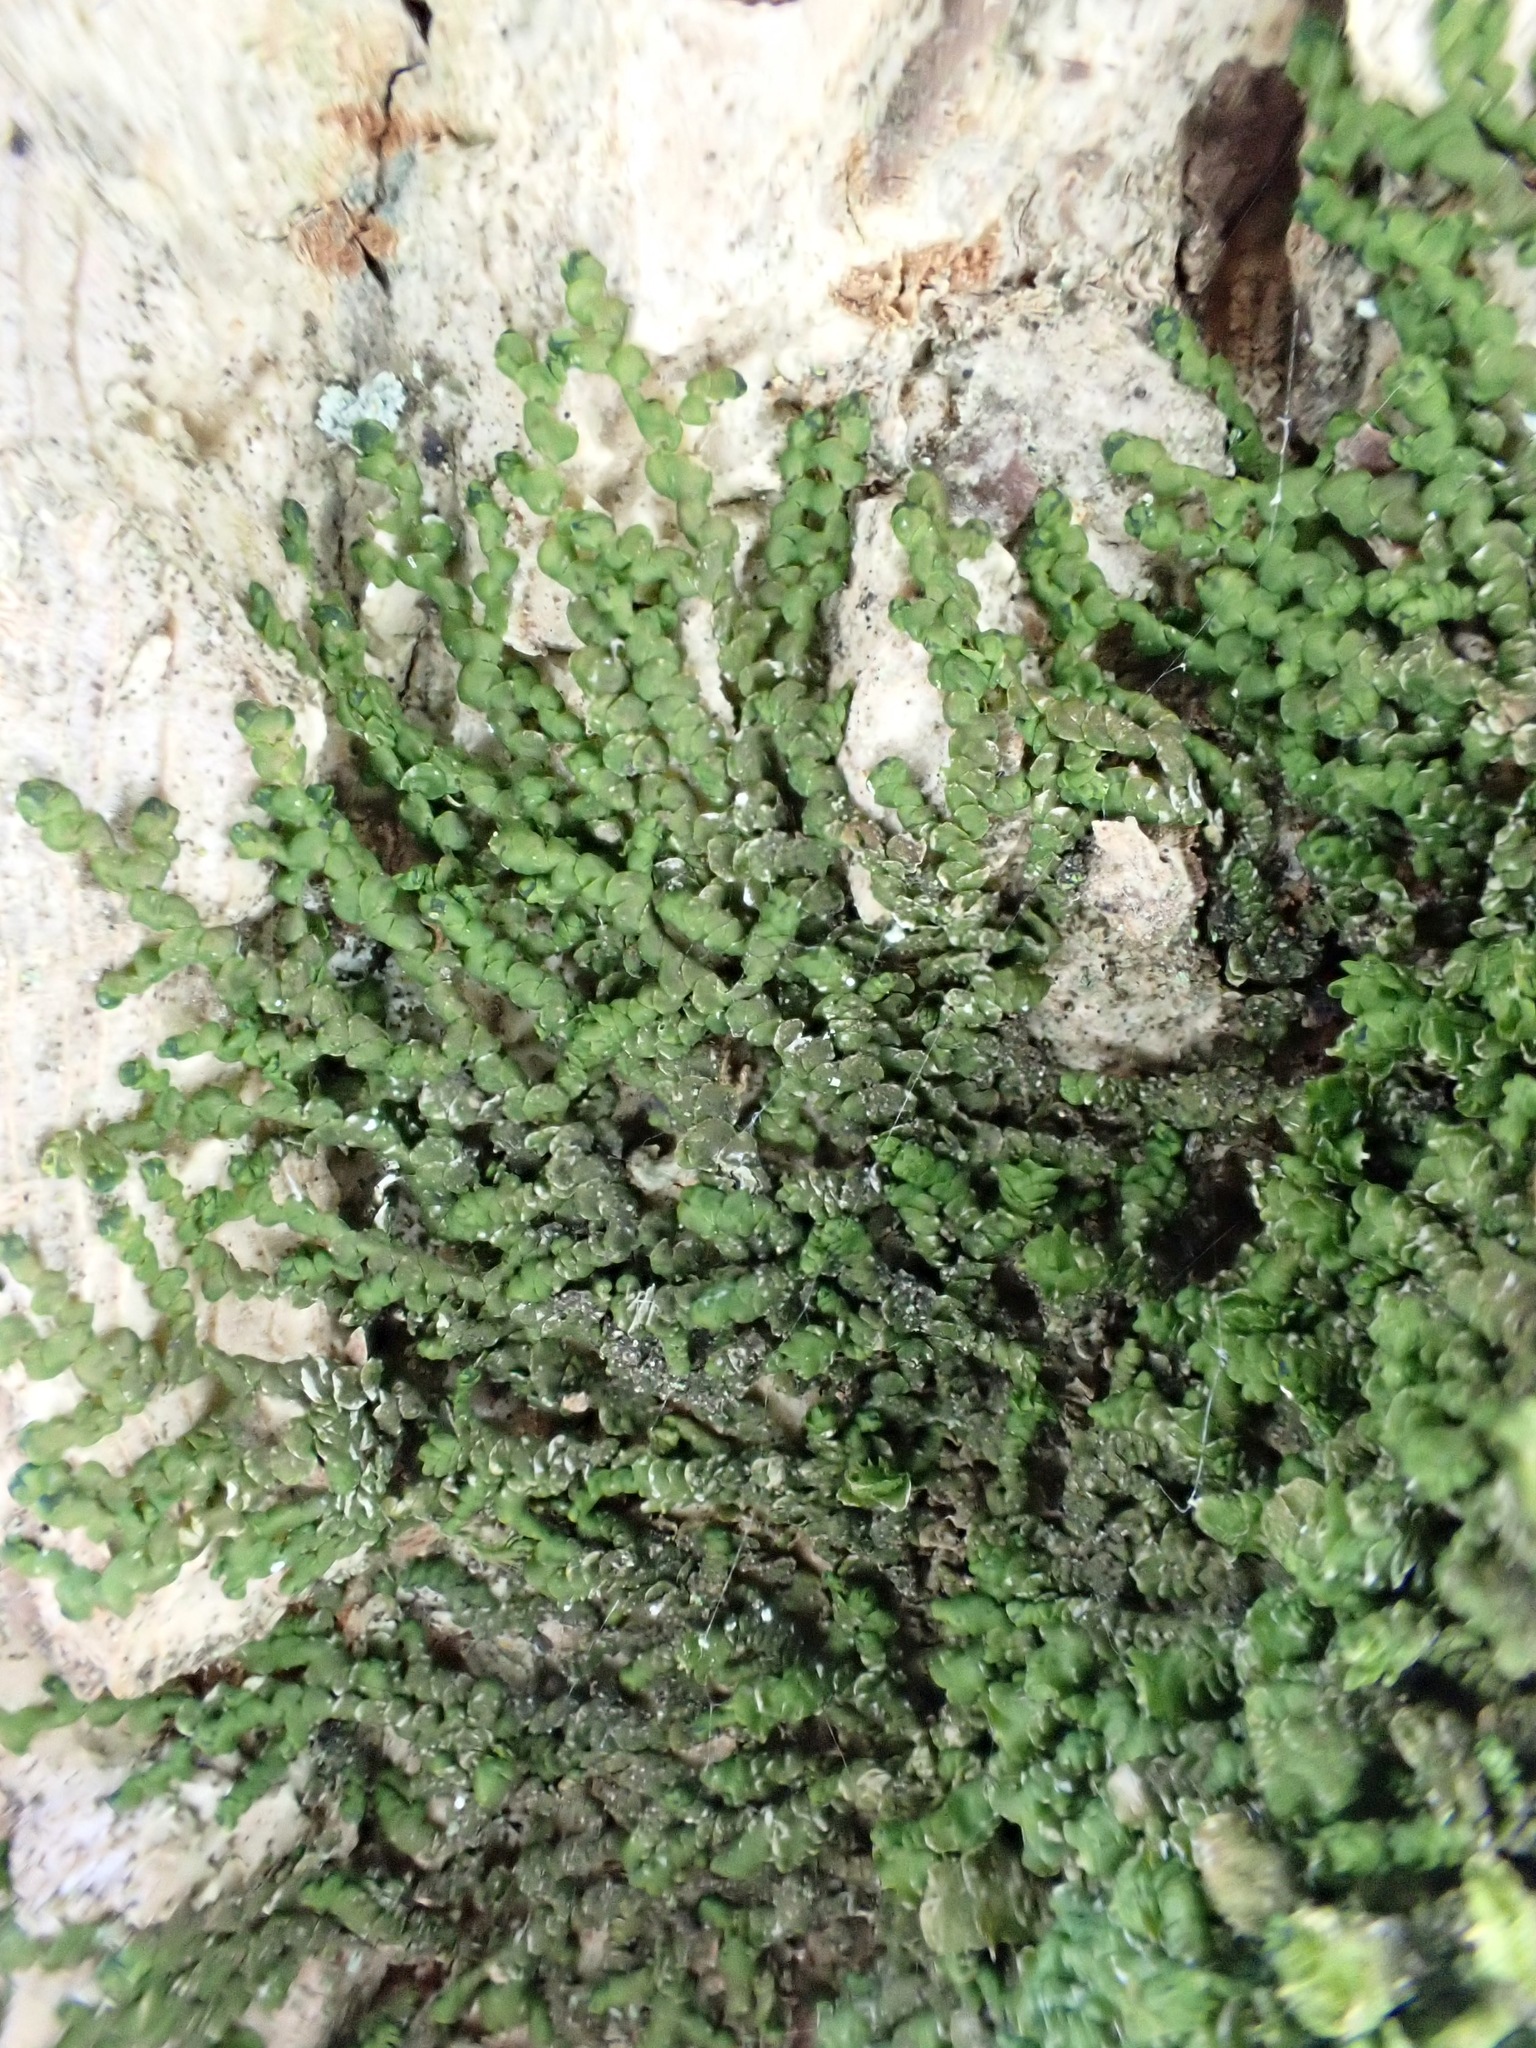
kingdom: Plantae
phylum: Marchantiophyta
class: Jungermanniopsida
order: Porellales
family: Frullaniaceae
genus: Frullania
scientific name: Frullania dilatata
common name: Dilated scalewort
